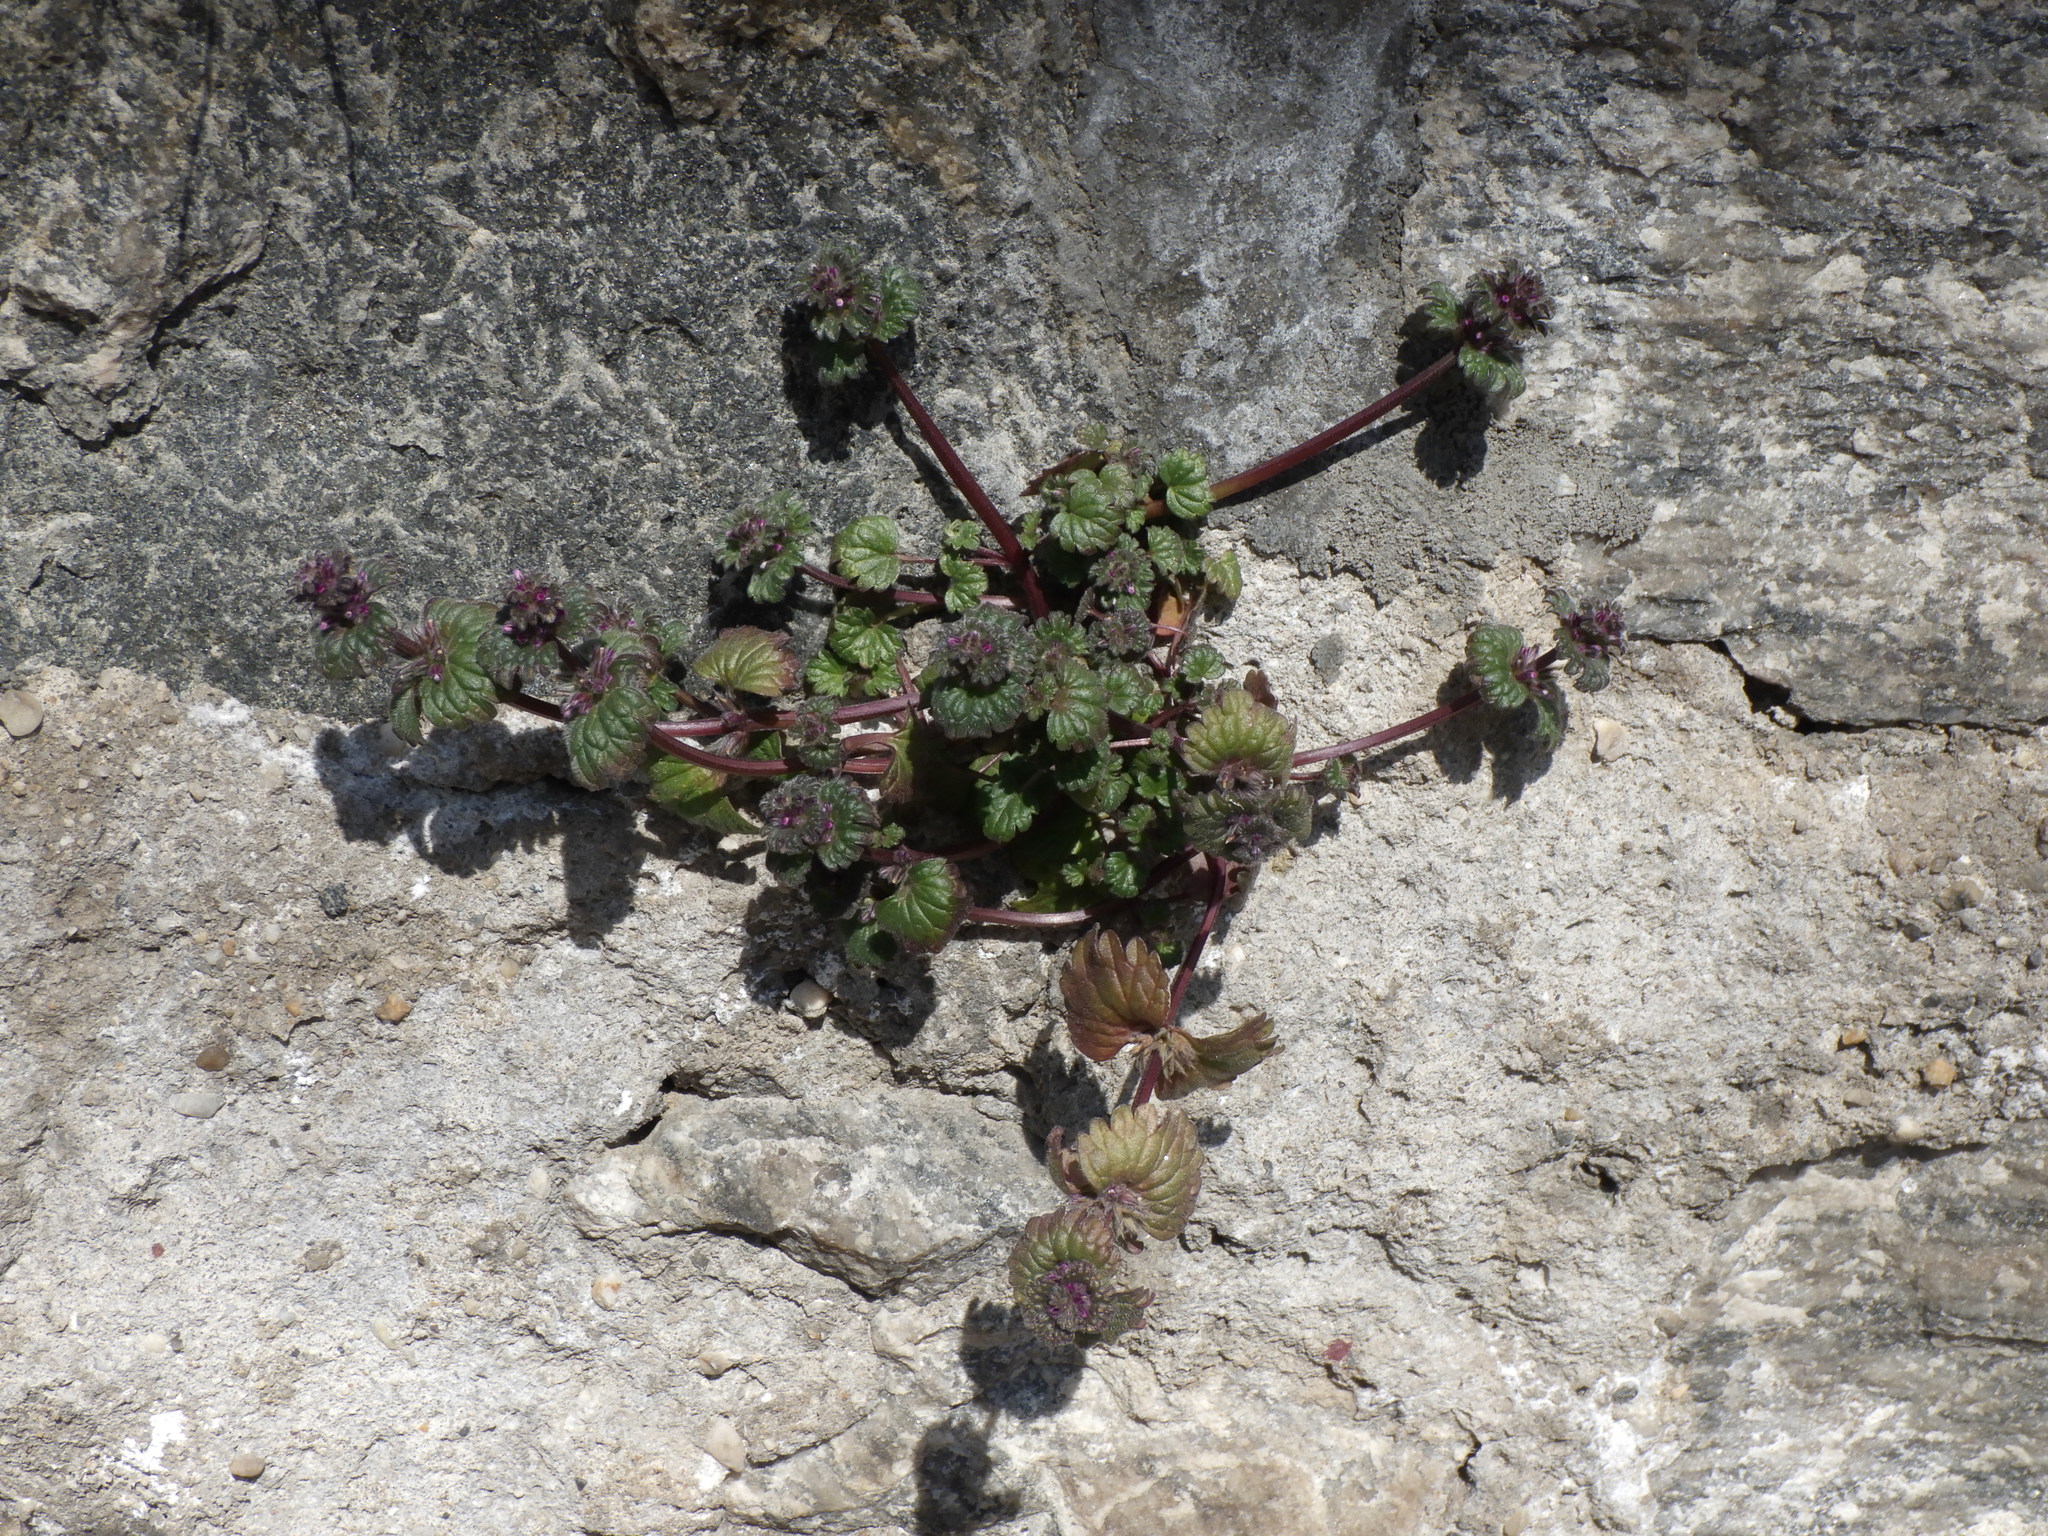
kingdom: Plantae
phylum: Tracheophyta
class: Magnoliopsida
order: Lamiales
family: Lamiaceae
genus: Lamium
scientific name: Lamium amplexicaule
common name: Henbit dead-nettle
